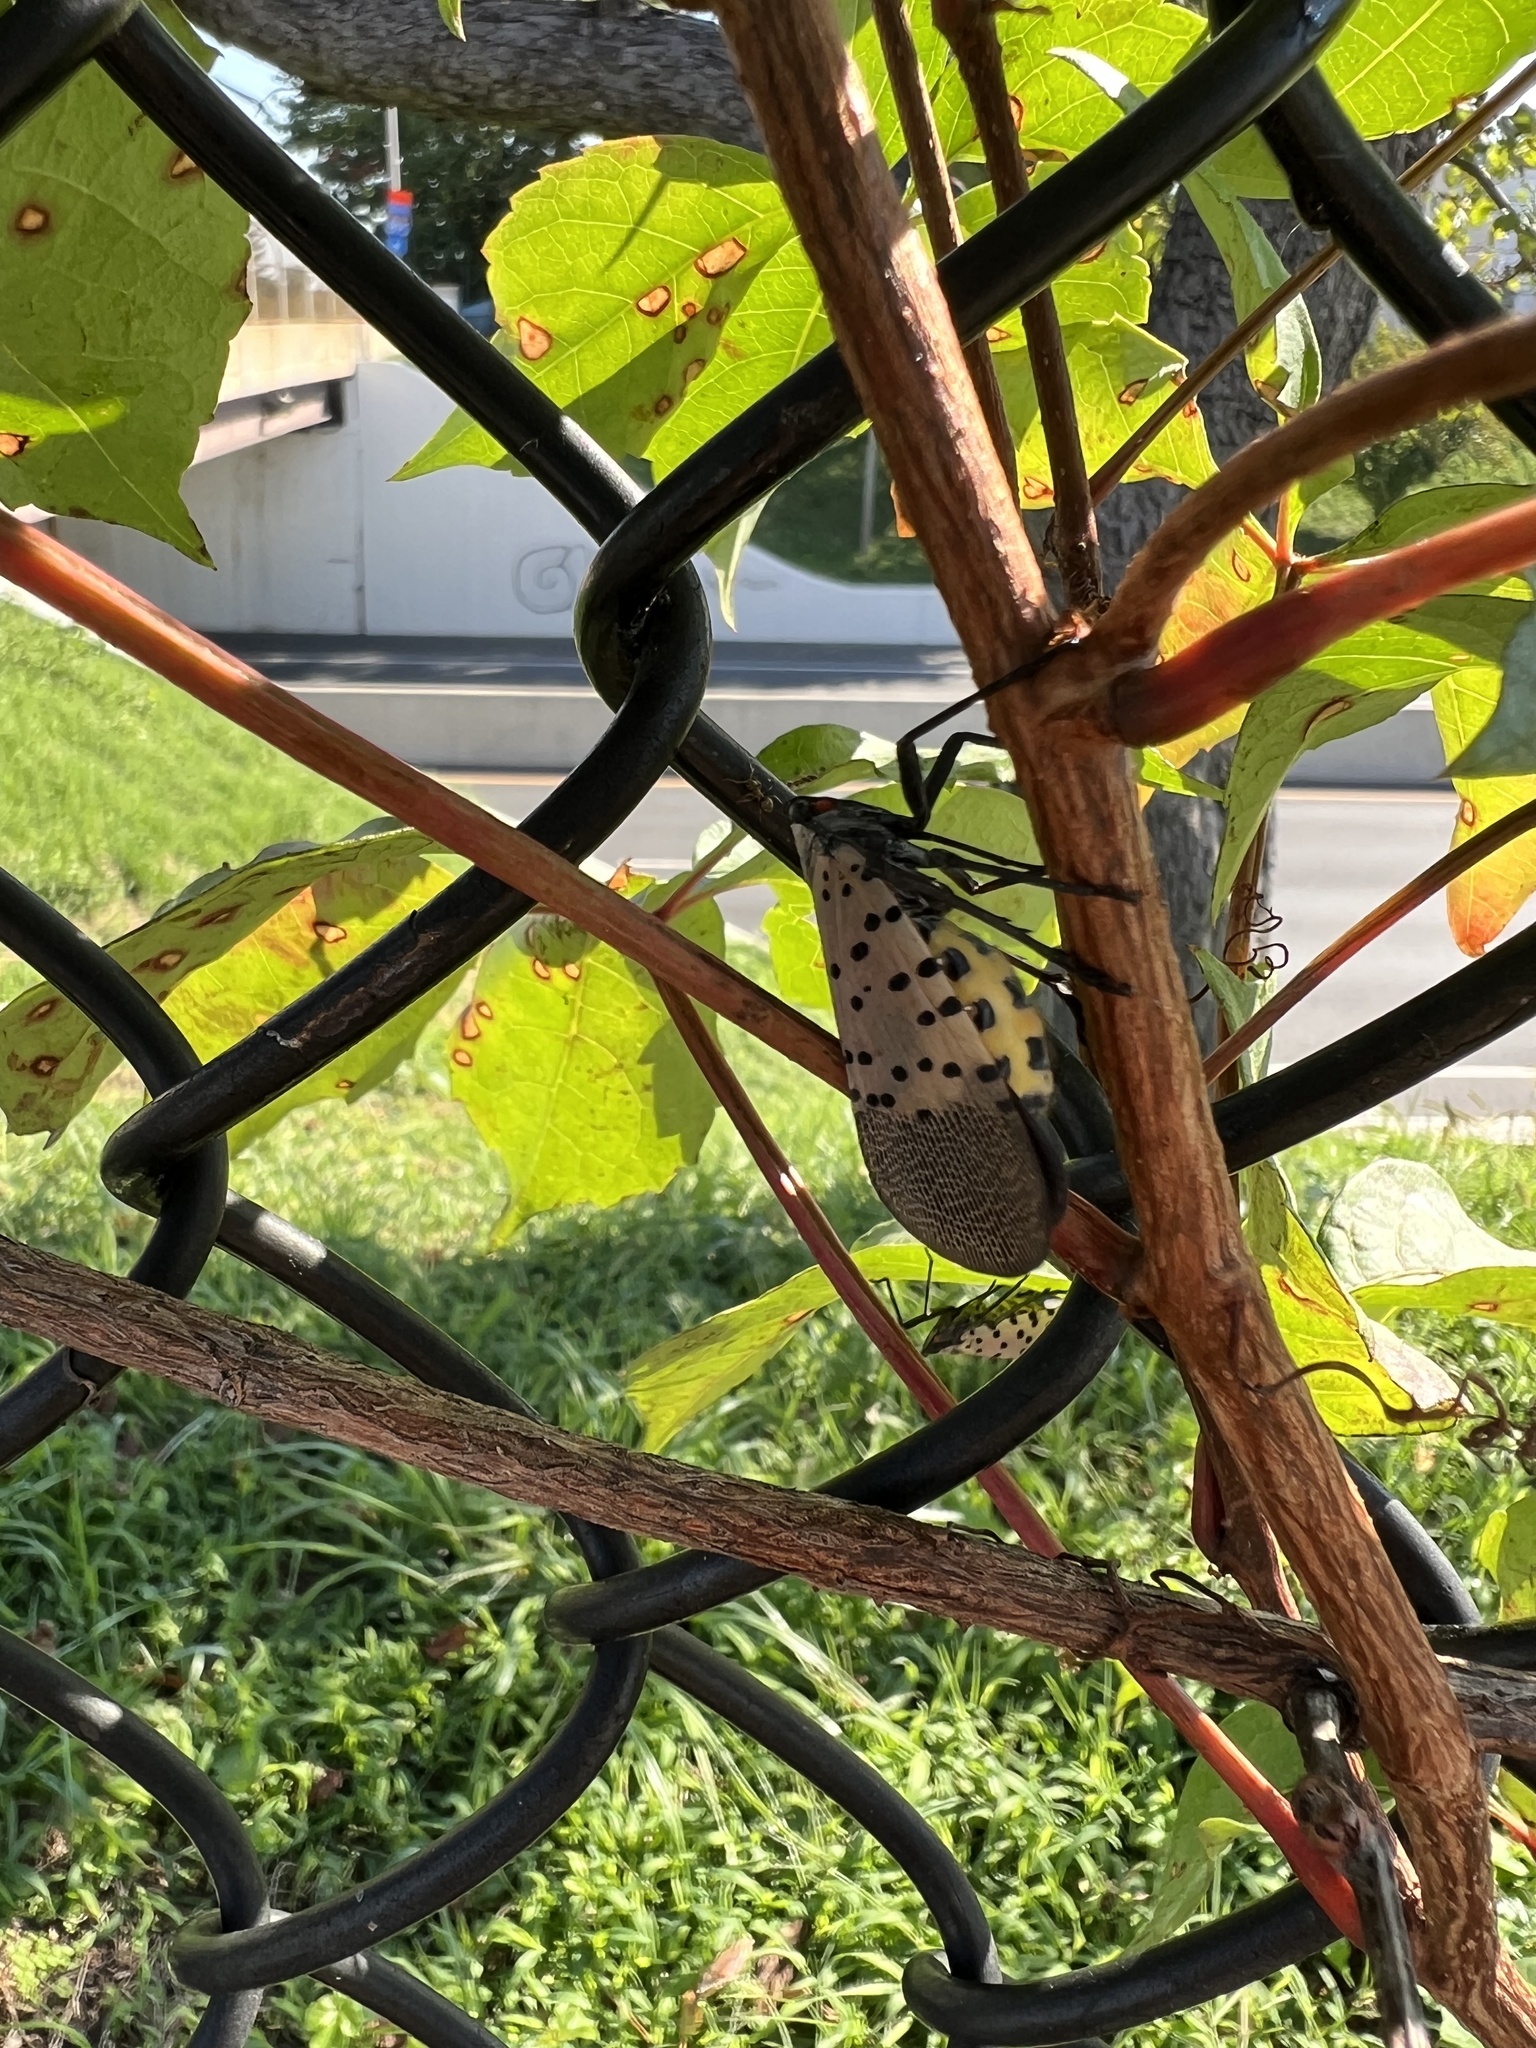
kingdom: Animalia
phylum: Arthropoda
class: Insecta
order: Hemiptera
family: Fulgoridae
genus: Lycorma
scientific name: Lycorma delicatula
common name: Spotted lanternfly
